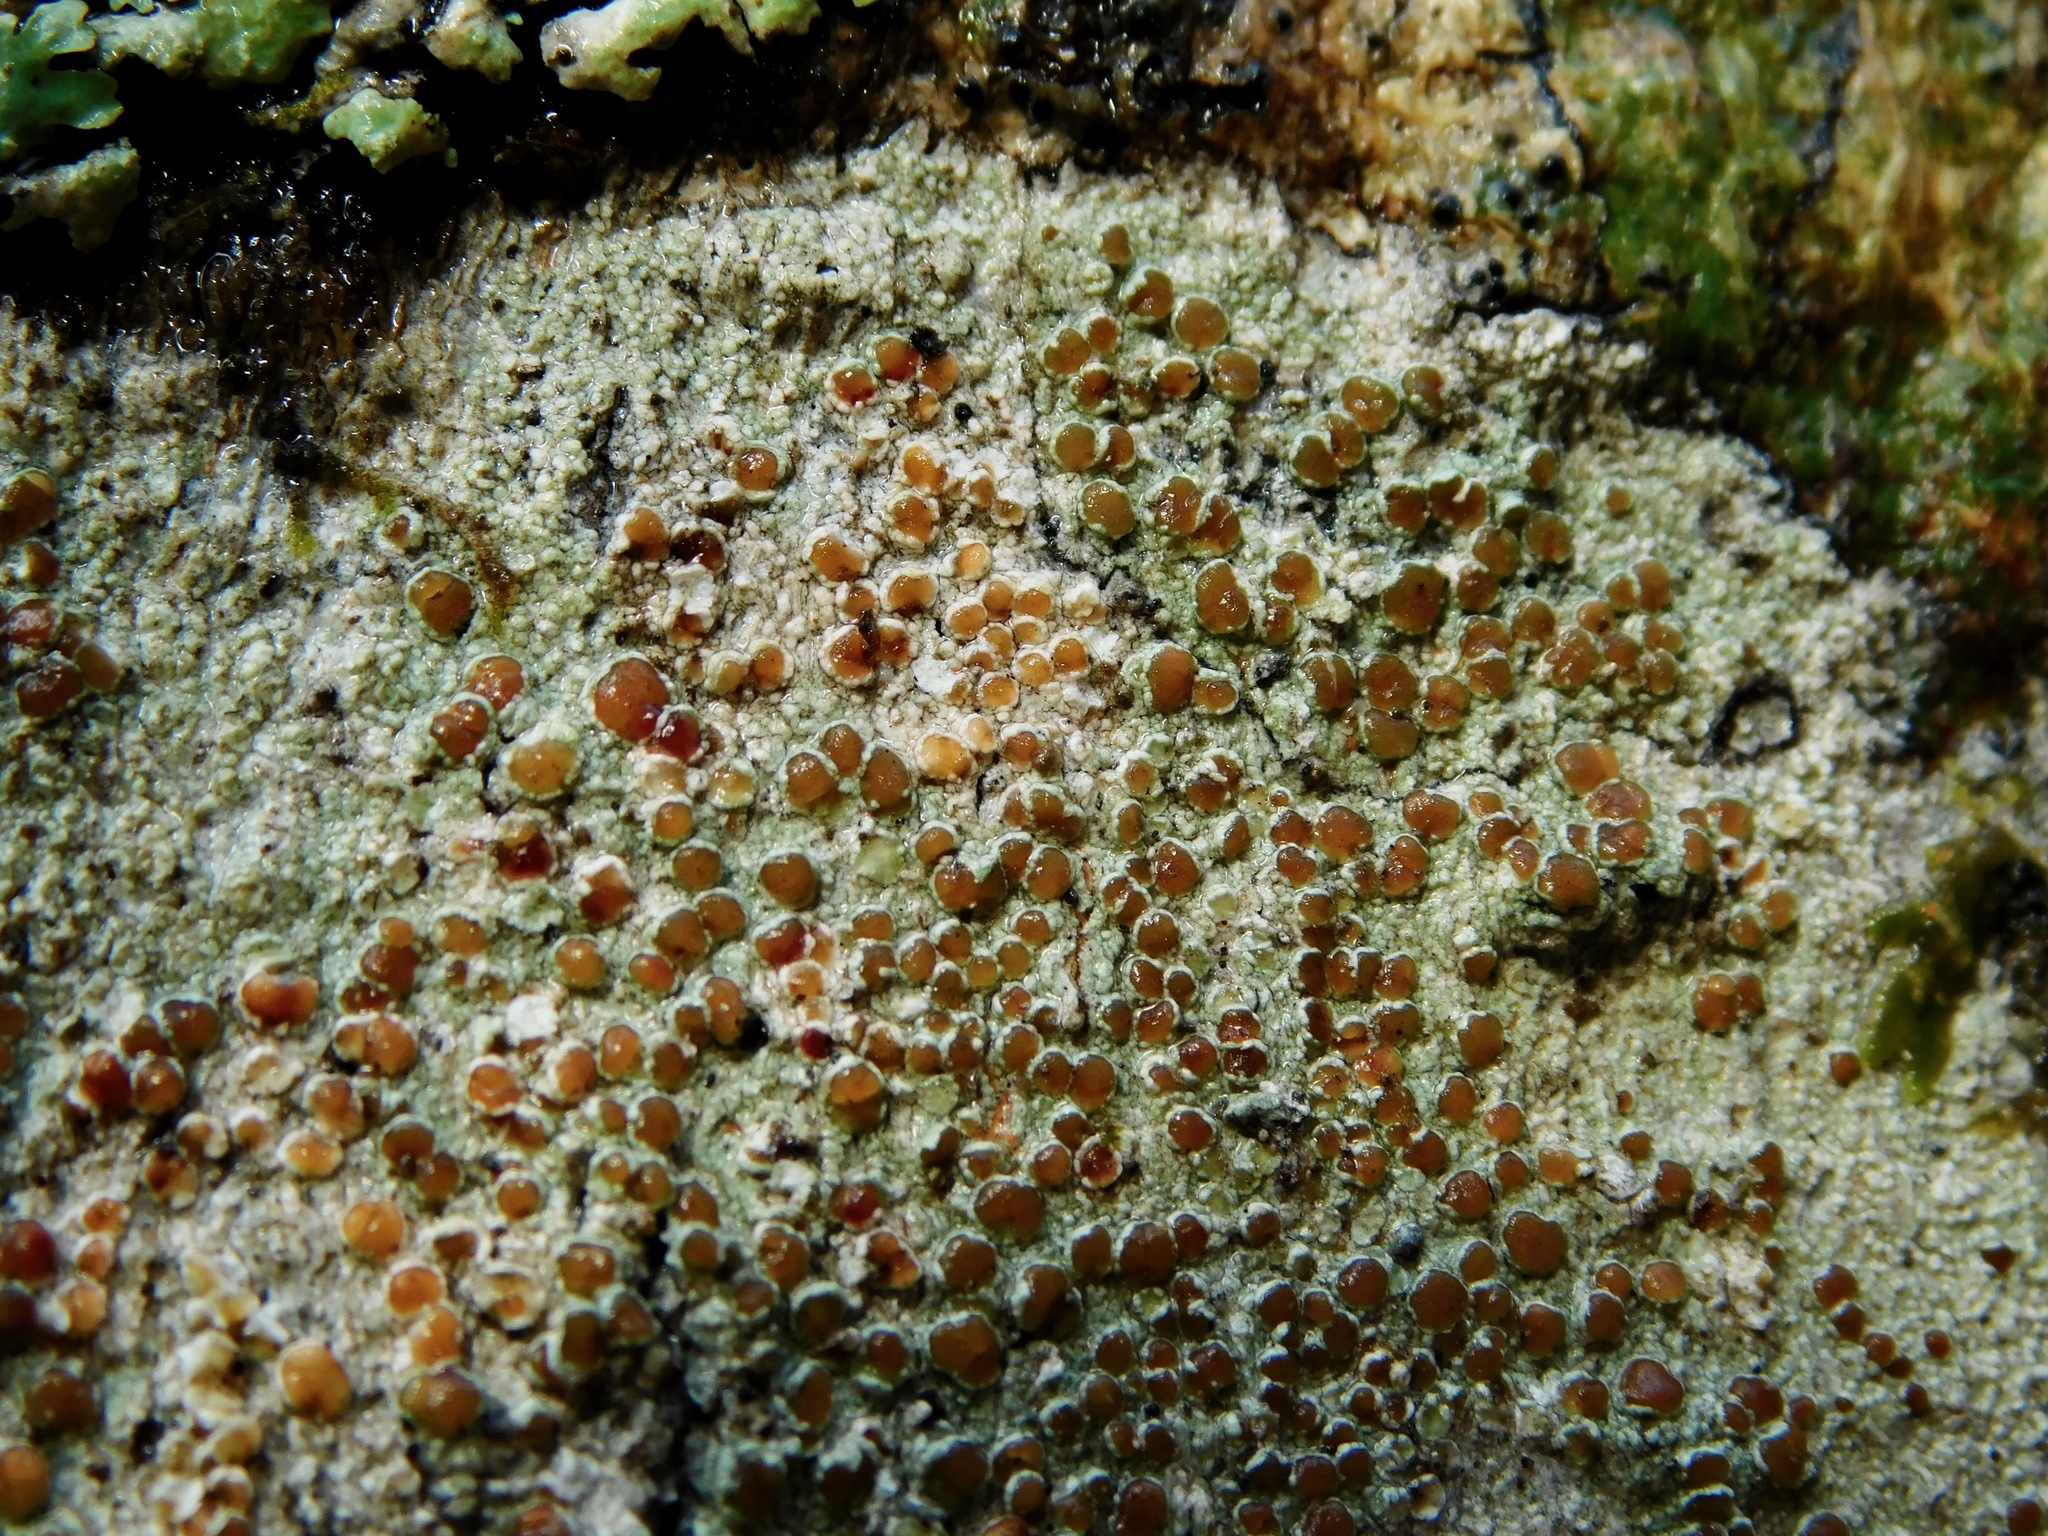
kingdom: Fungi
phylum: Ascomycota
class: Lecanoromycetes
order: Lecanorales
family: Lecanoraceae
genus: Lecanora
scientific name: Lecanora hybocarpa
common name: Bumpy rim-lichen
